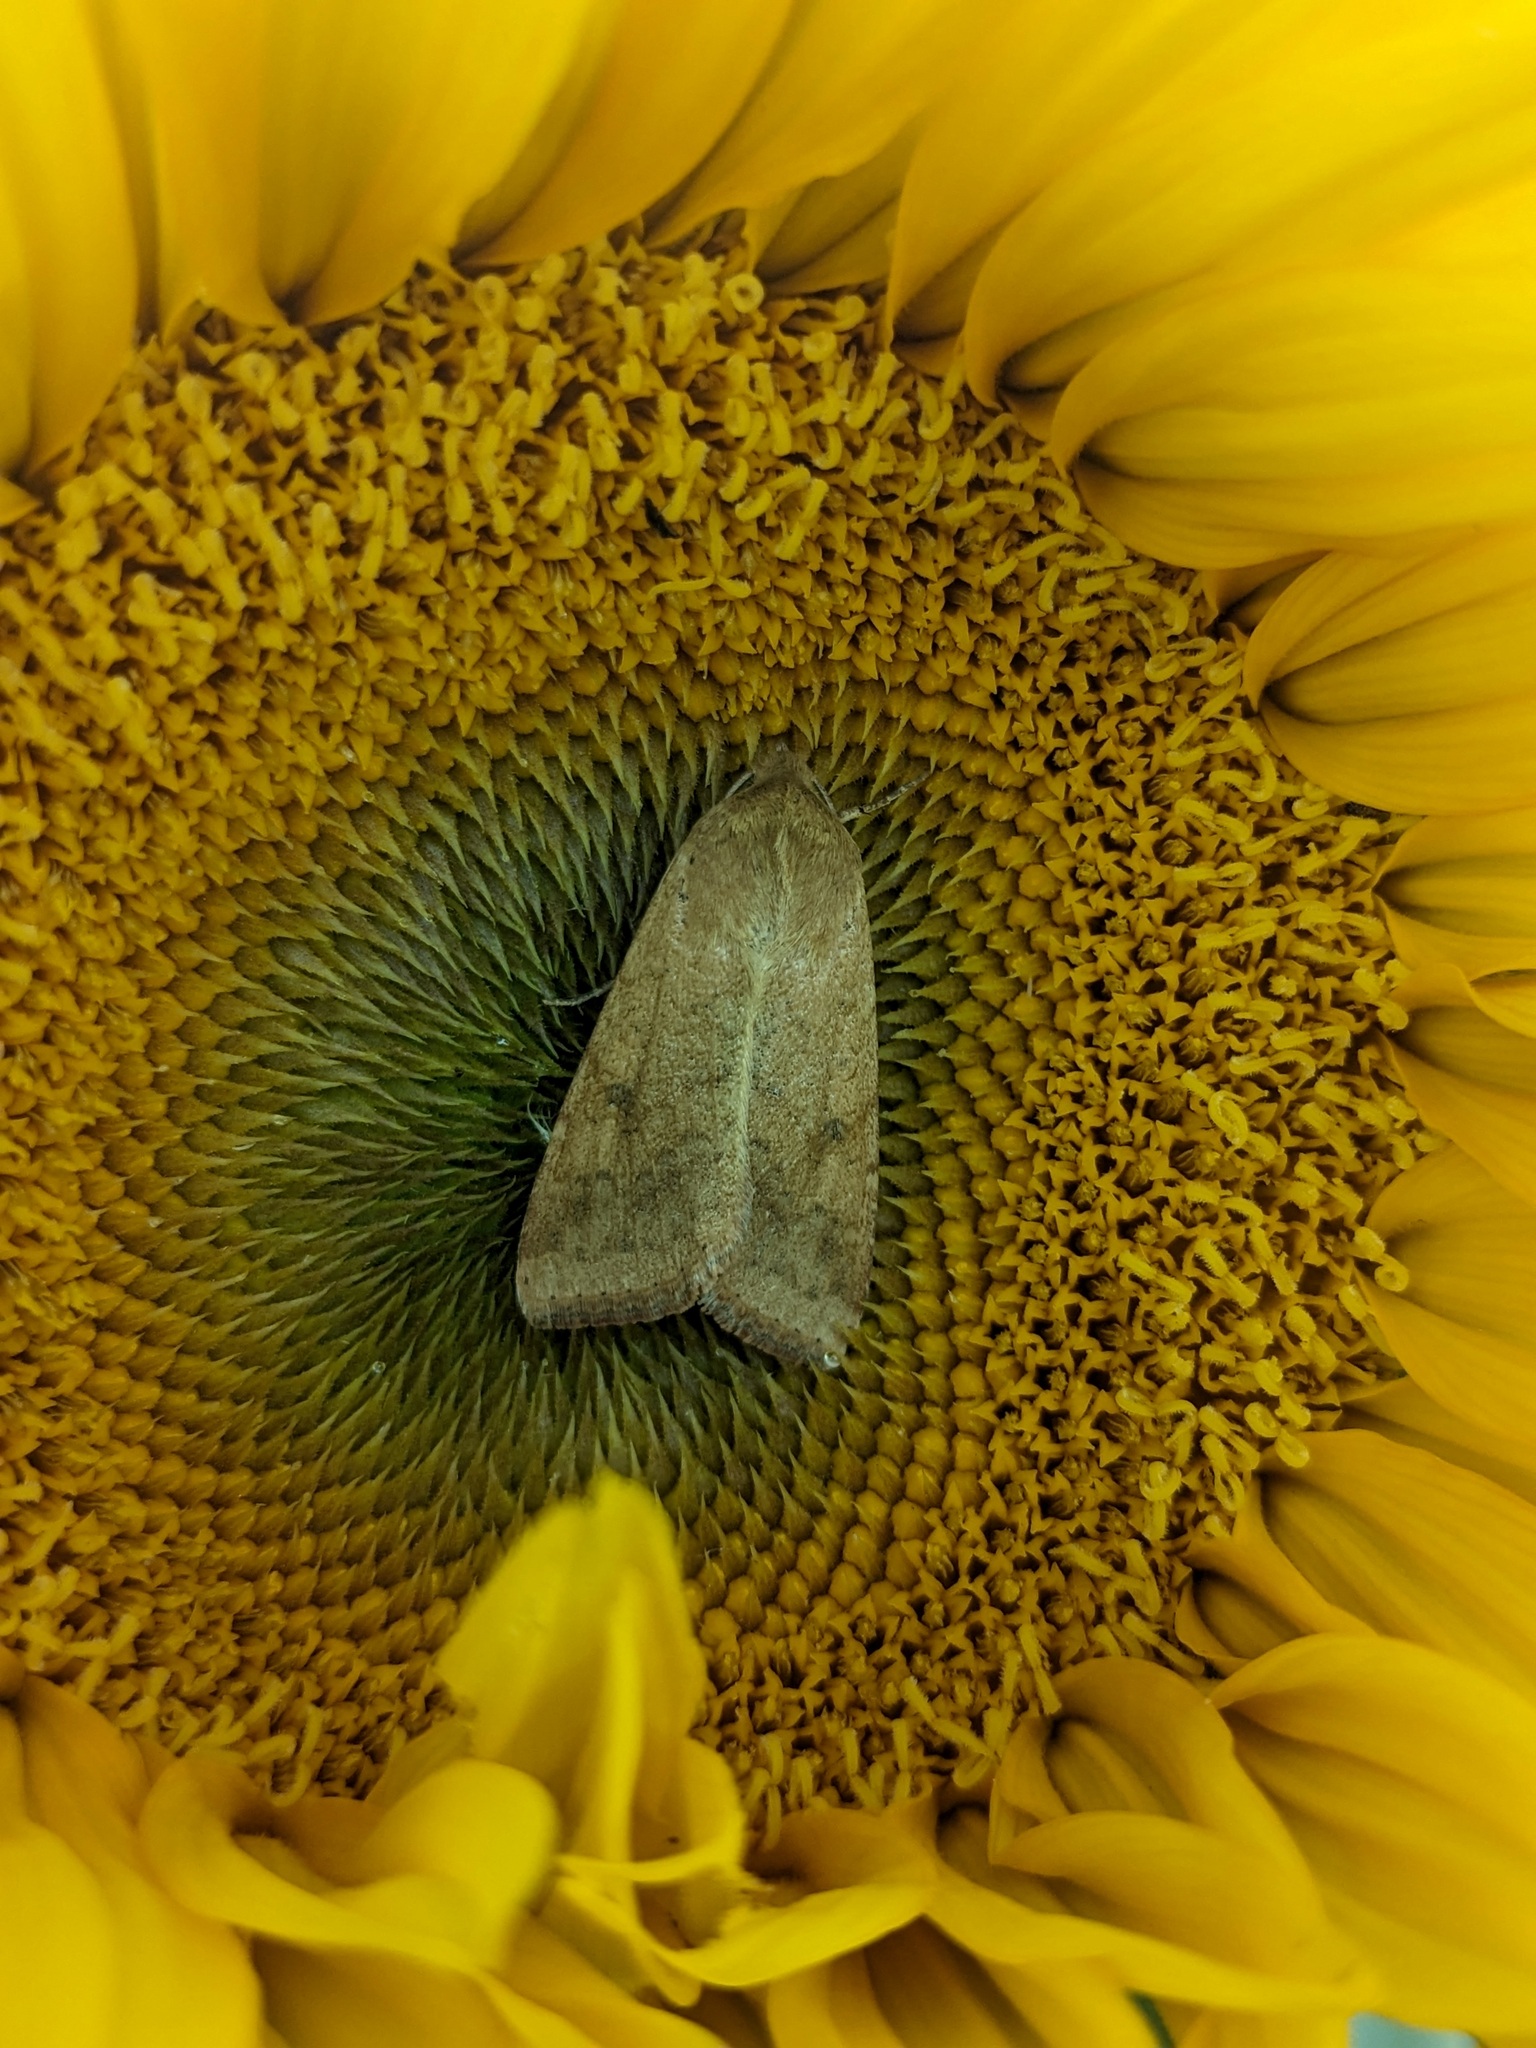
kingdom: Animalia
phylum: Arthropoda
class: Insecta
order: Lepidoptera
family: Noctuidae
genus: Helicoverpa
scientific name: Helicoverpa armigera
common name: Cotton bollworm
